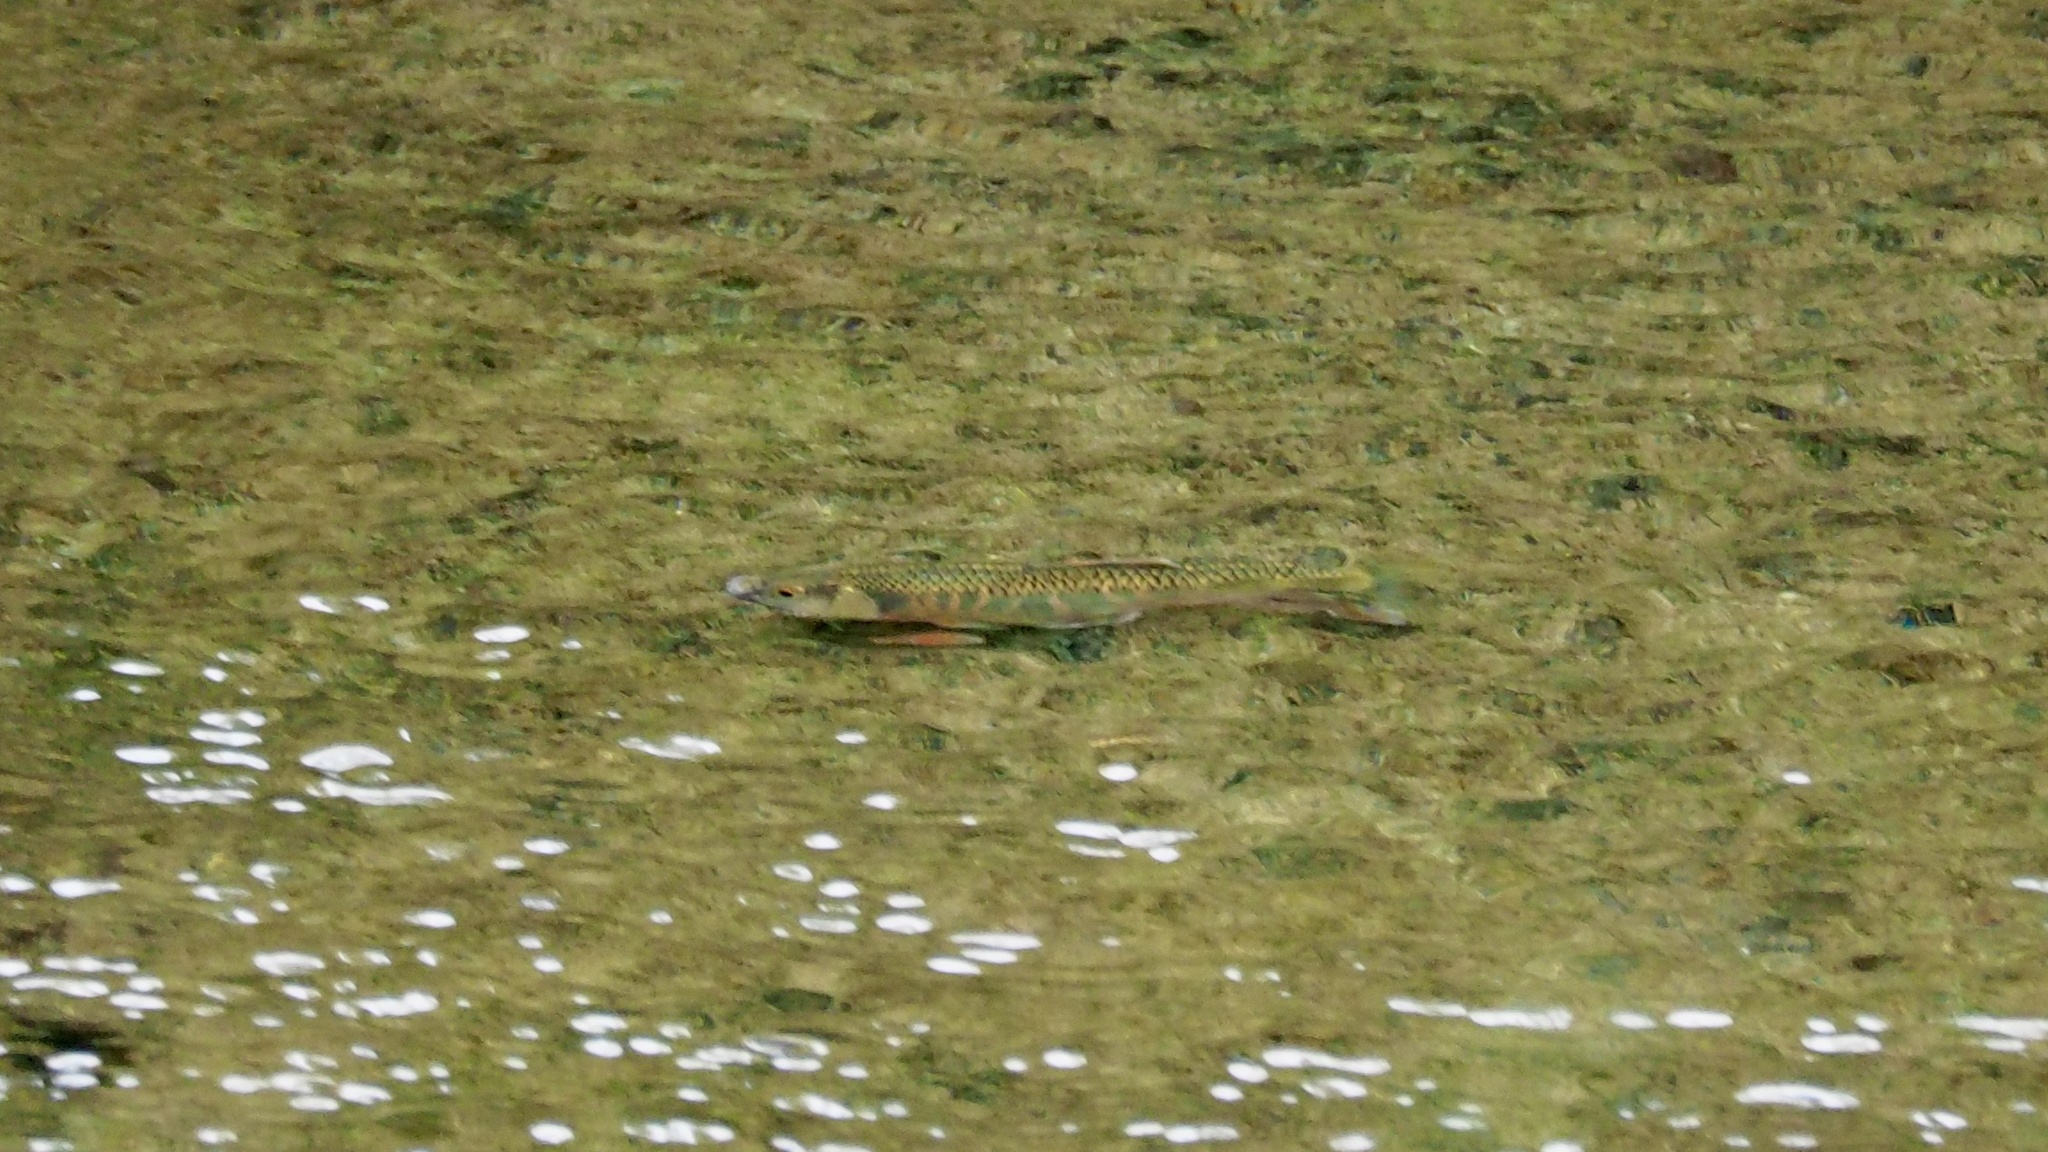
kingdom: Animalia
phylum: Chordata
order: Cypriniformes
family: Cyprinidae
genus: Zacco
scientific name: Zacco platypus
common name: Freshwater minnow
